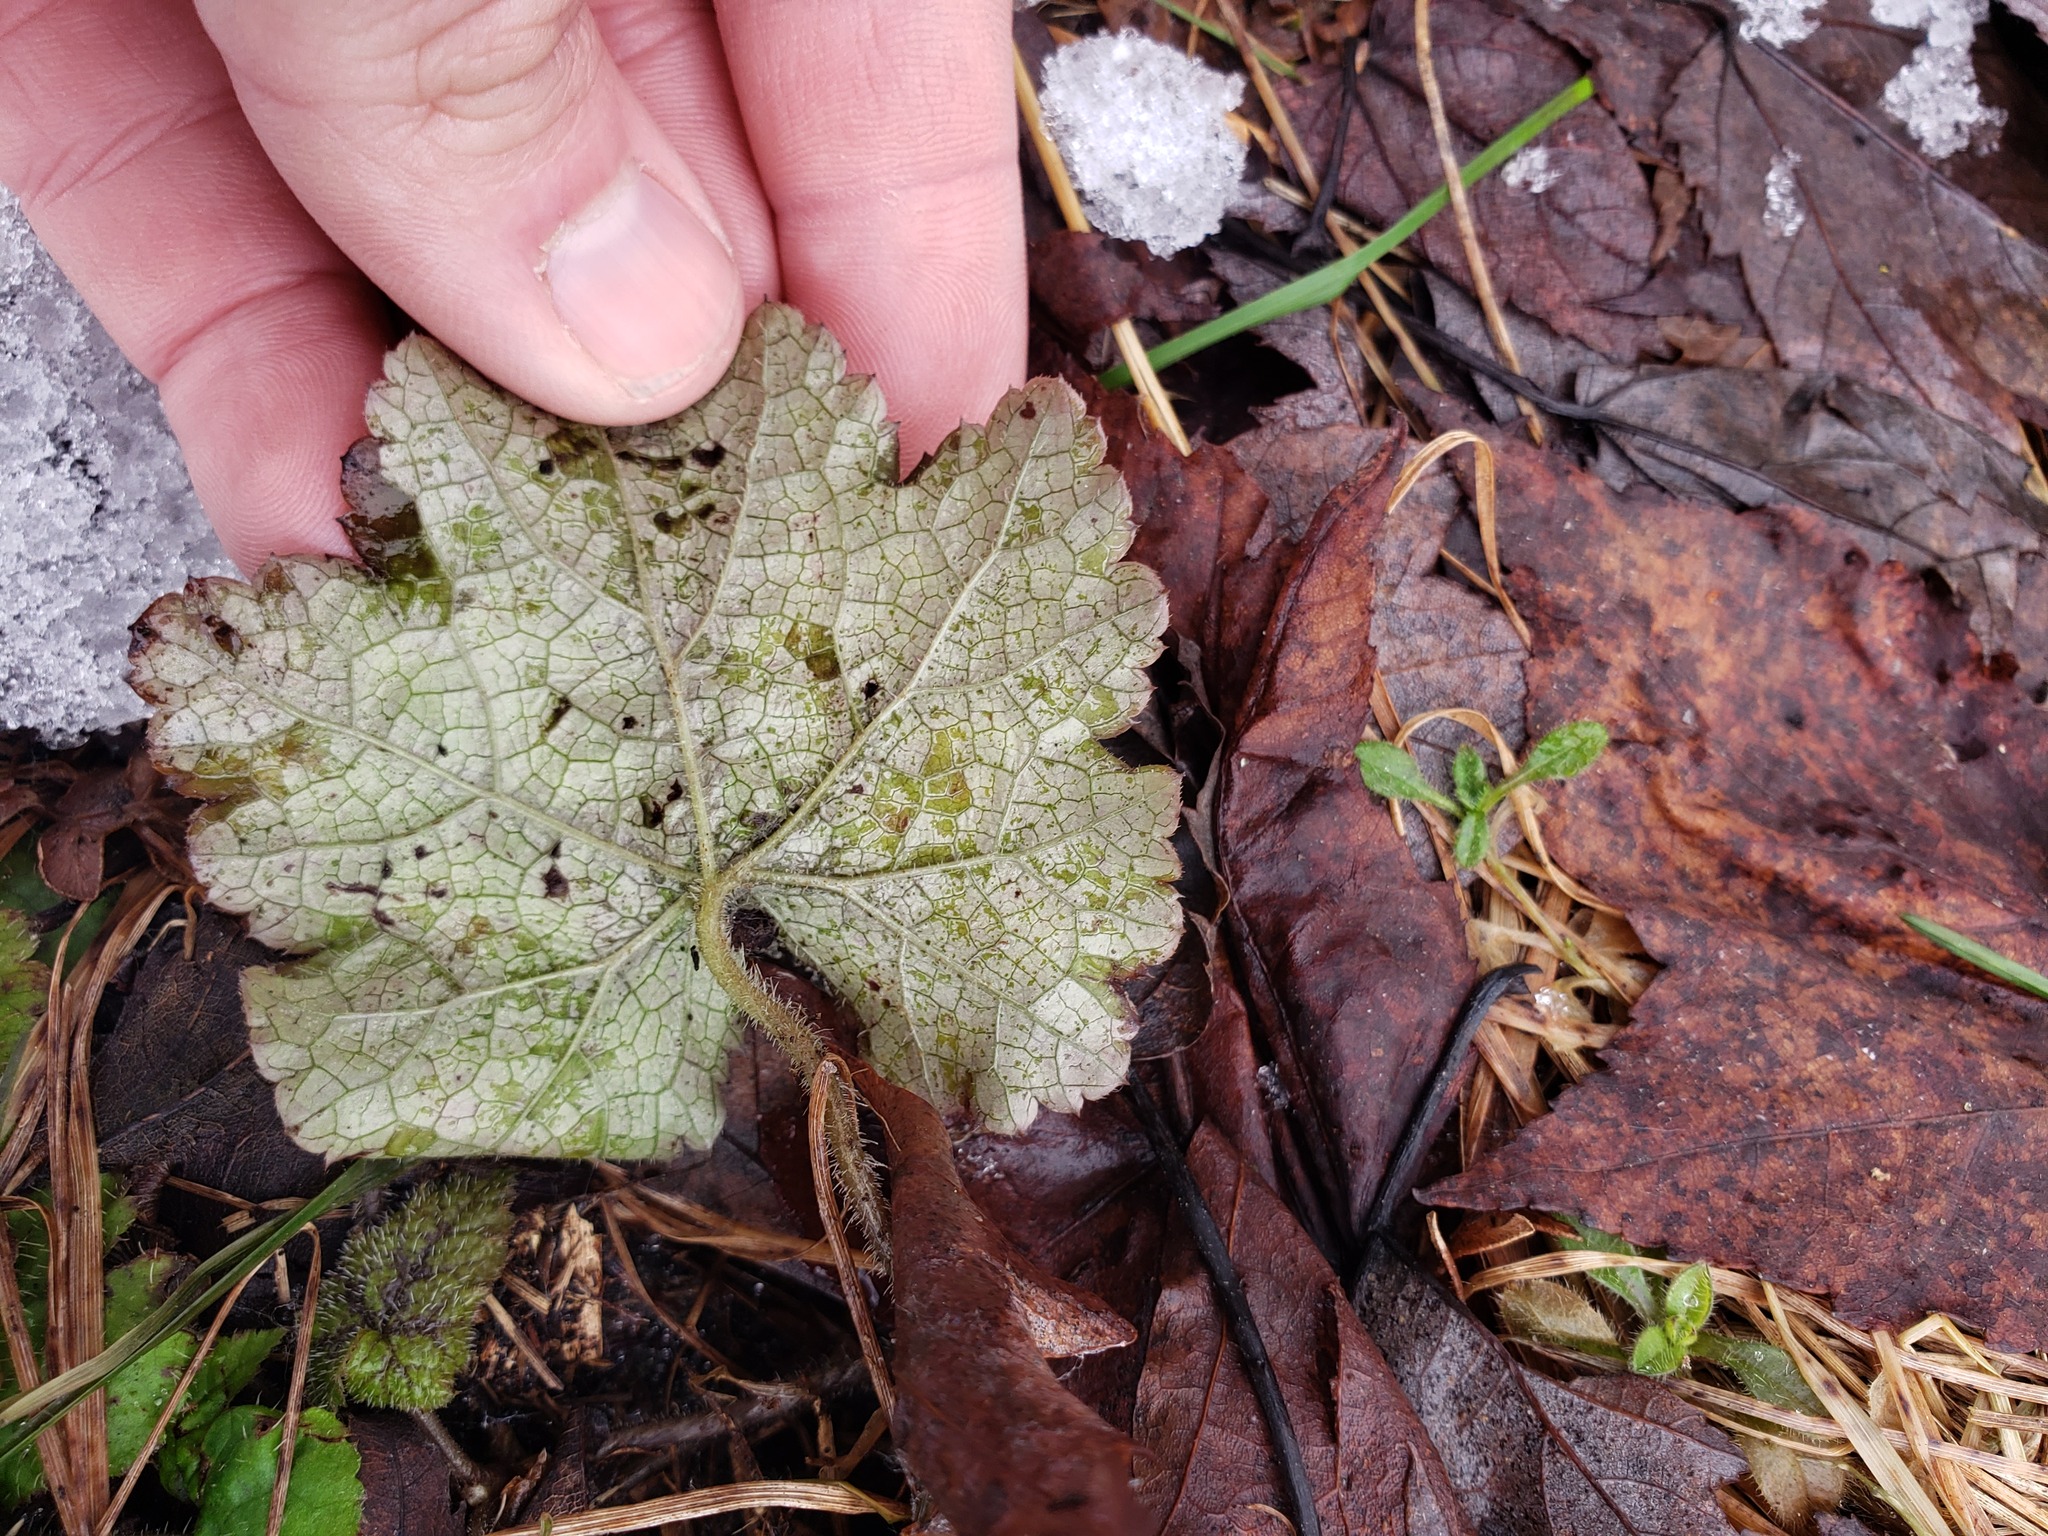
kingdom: Plantae
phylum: Tracheophyta
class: Magnoliopsida
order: Saxifragales
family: Saxifragaceae
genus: Tiarella
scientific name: Tiarella stolonifera
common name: Stoloniferous foamflower
